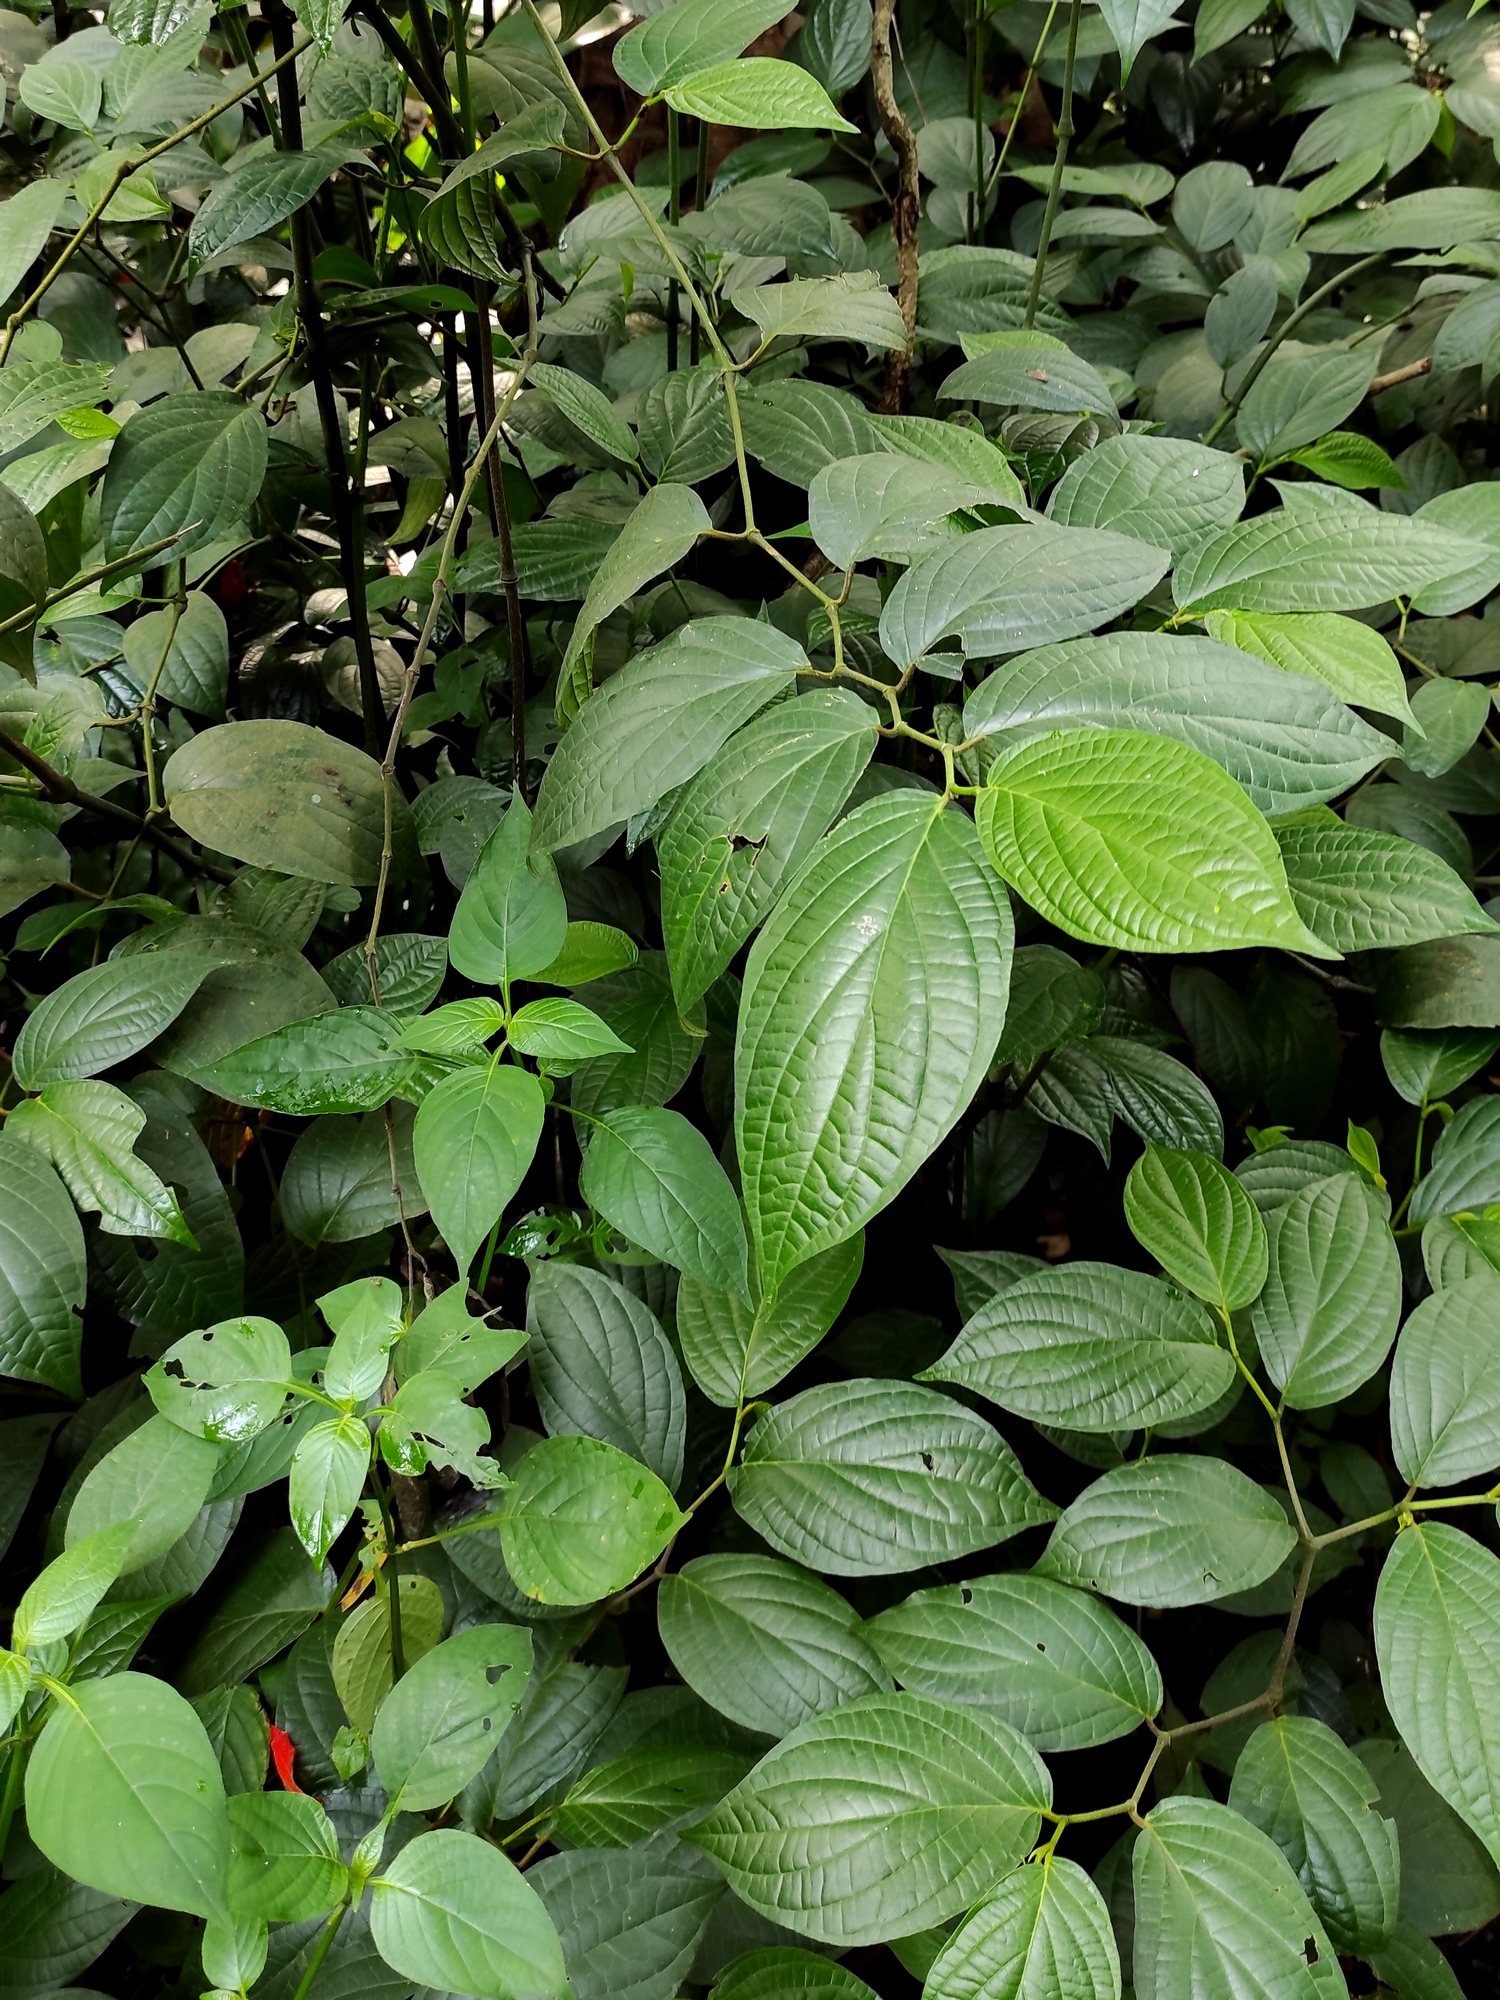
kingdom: Plantae
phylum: Tracheophyta
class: Magnoliopsida
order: Piperales
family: Piperaceae
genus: Piper
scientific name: Piper hispidum
